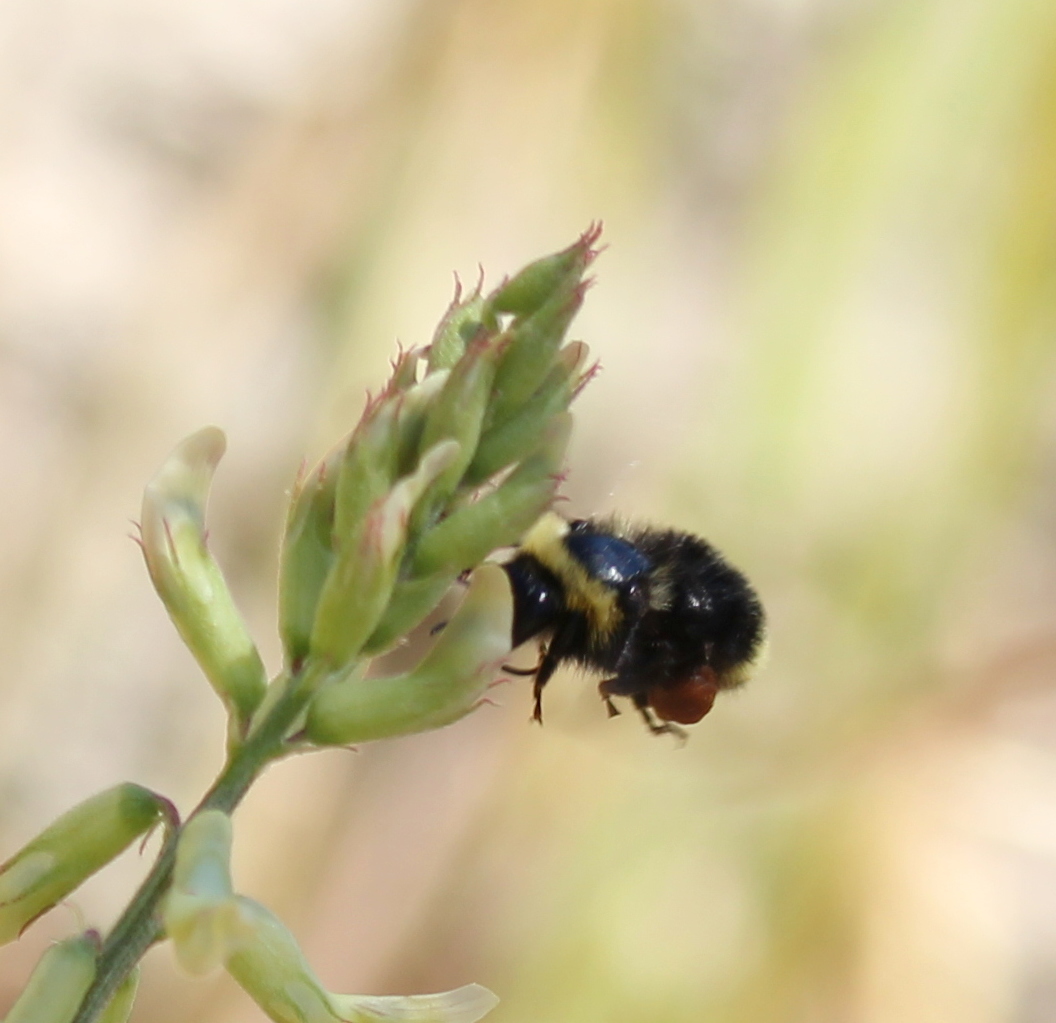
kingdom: Animalia
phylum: Arthropoda
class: Insecta
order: Hymenoptera
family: Apidae
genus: Bombus
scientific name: Bombus californicus
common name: California bumble bee
